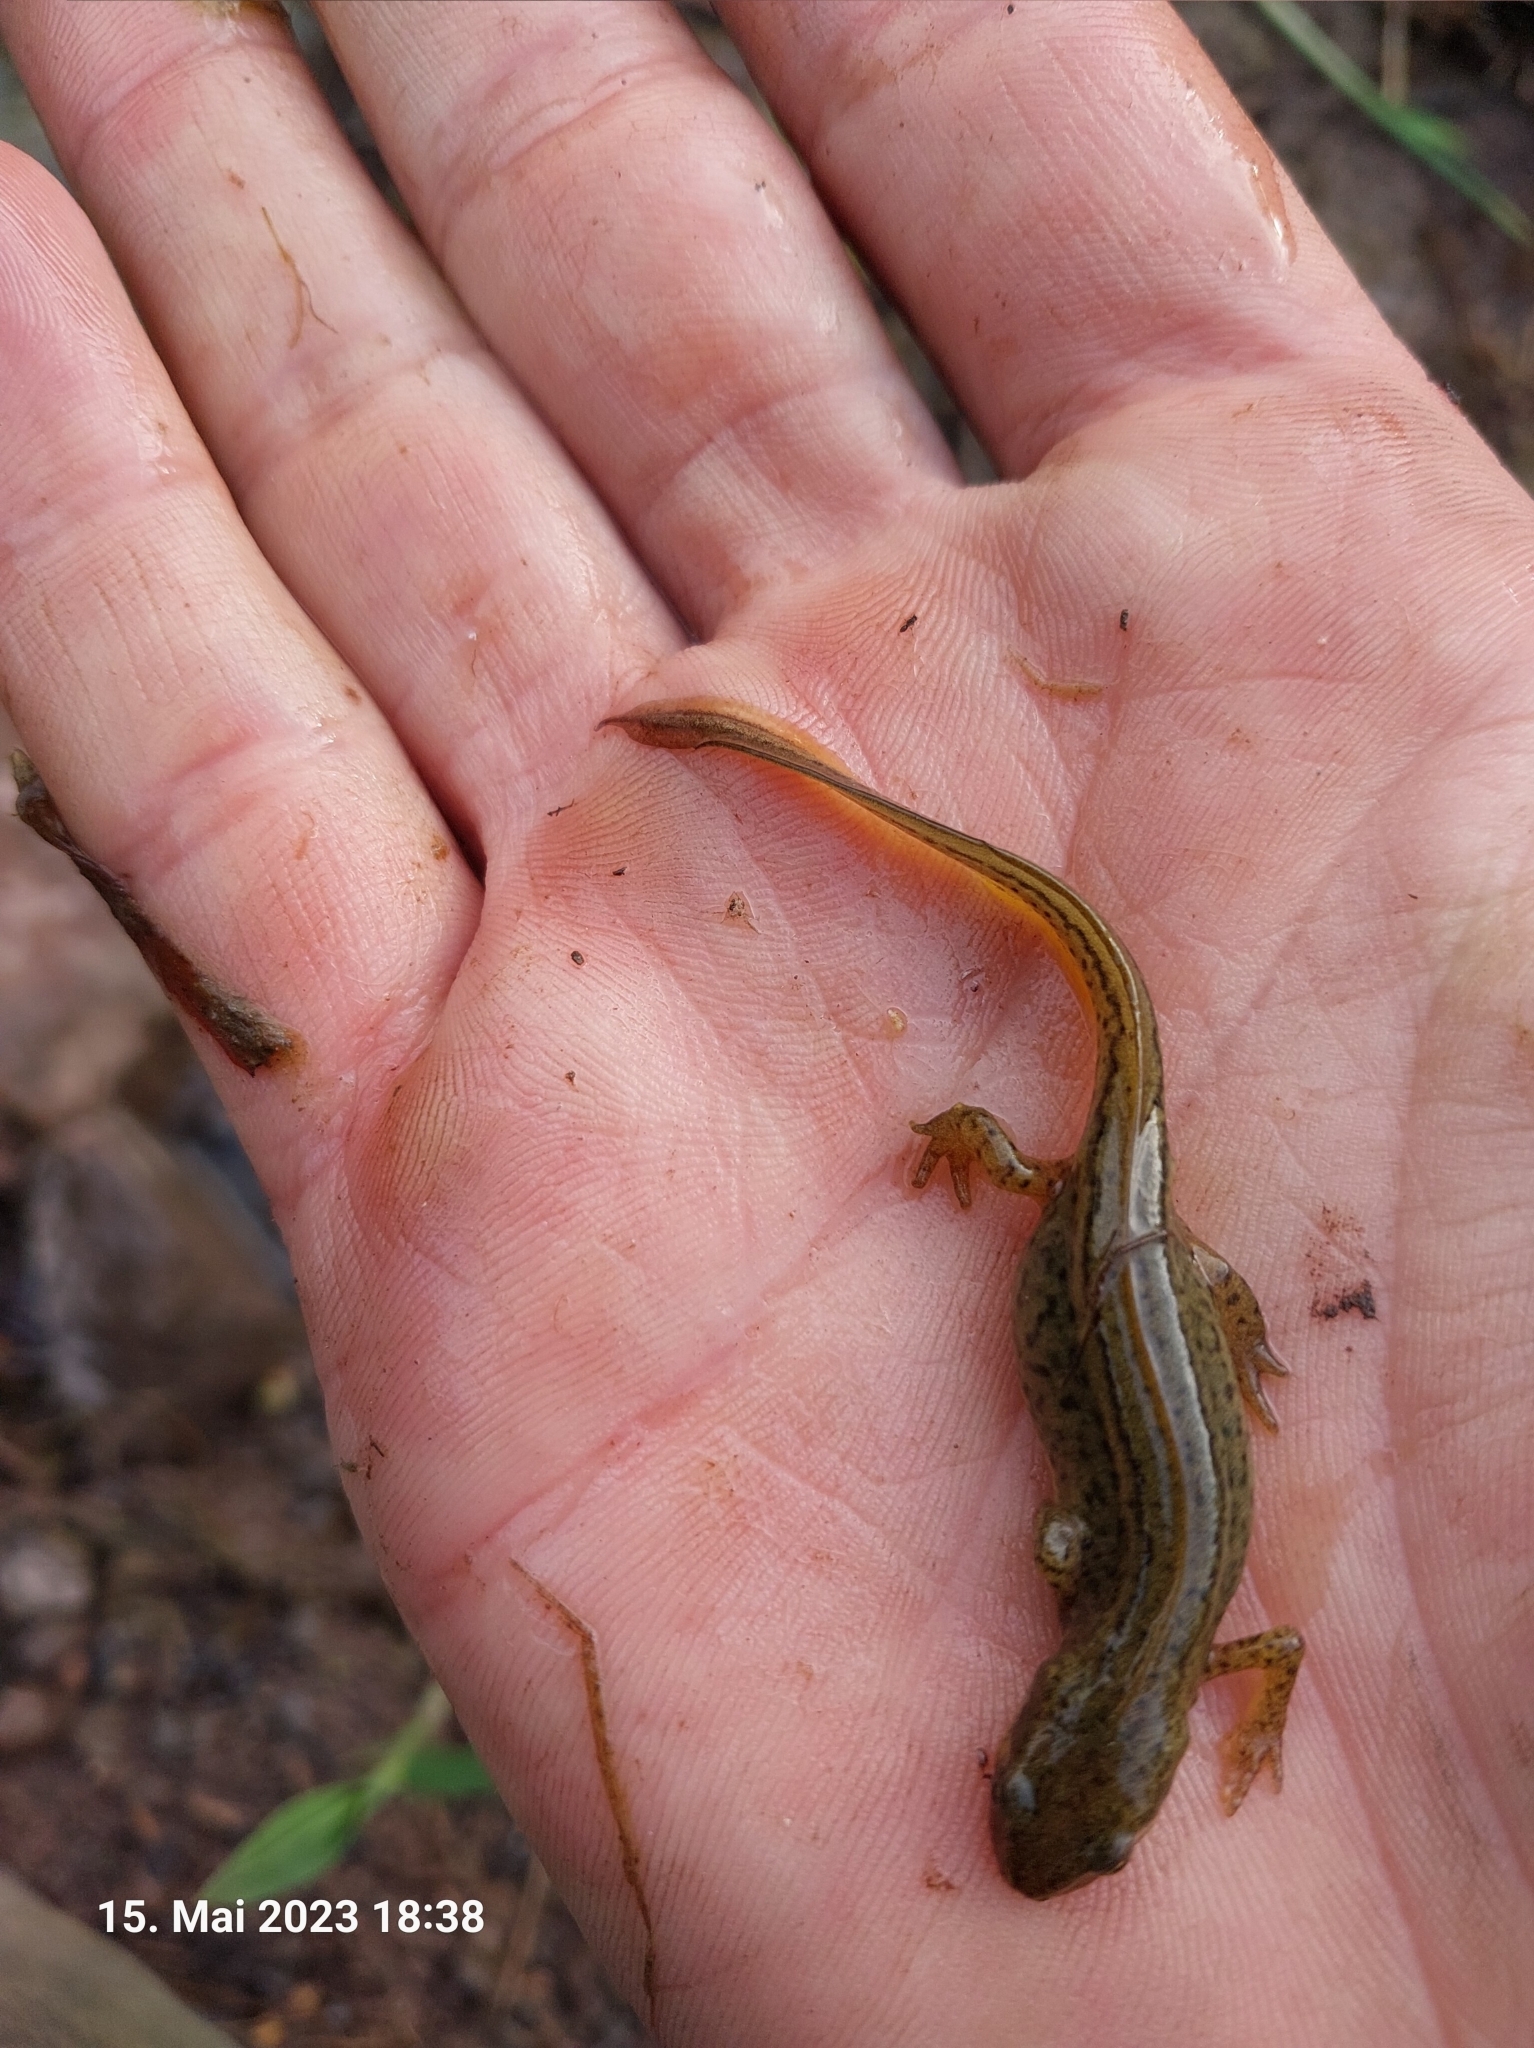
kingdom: Animalia
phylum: Chordata
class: Amphibia
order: Caudata
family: Salamandridae
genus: Lissotriton
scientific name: Lissotriton helveticus
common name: Palmate newt
